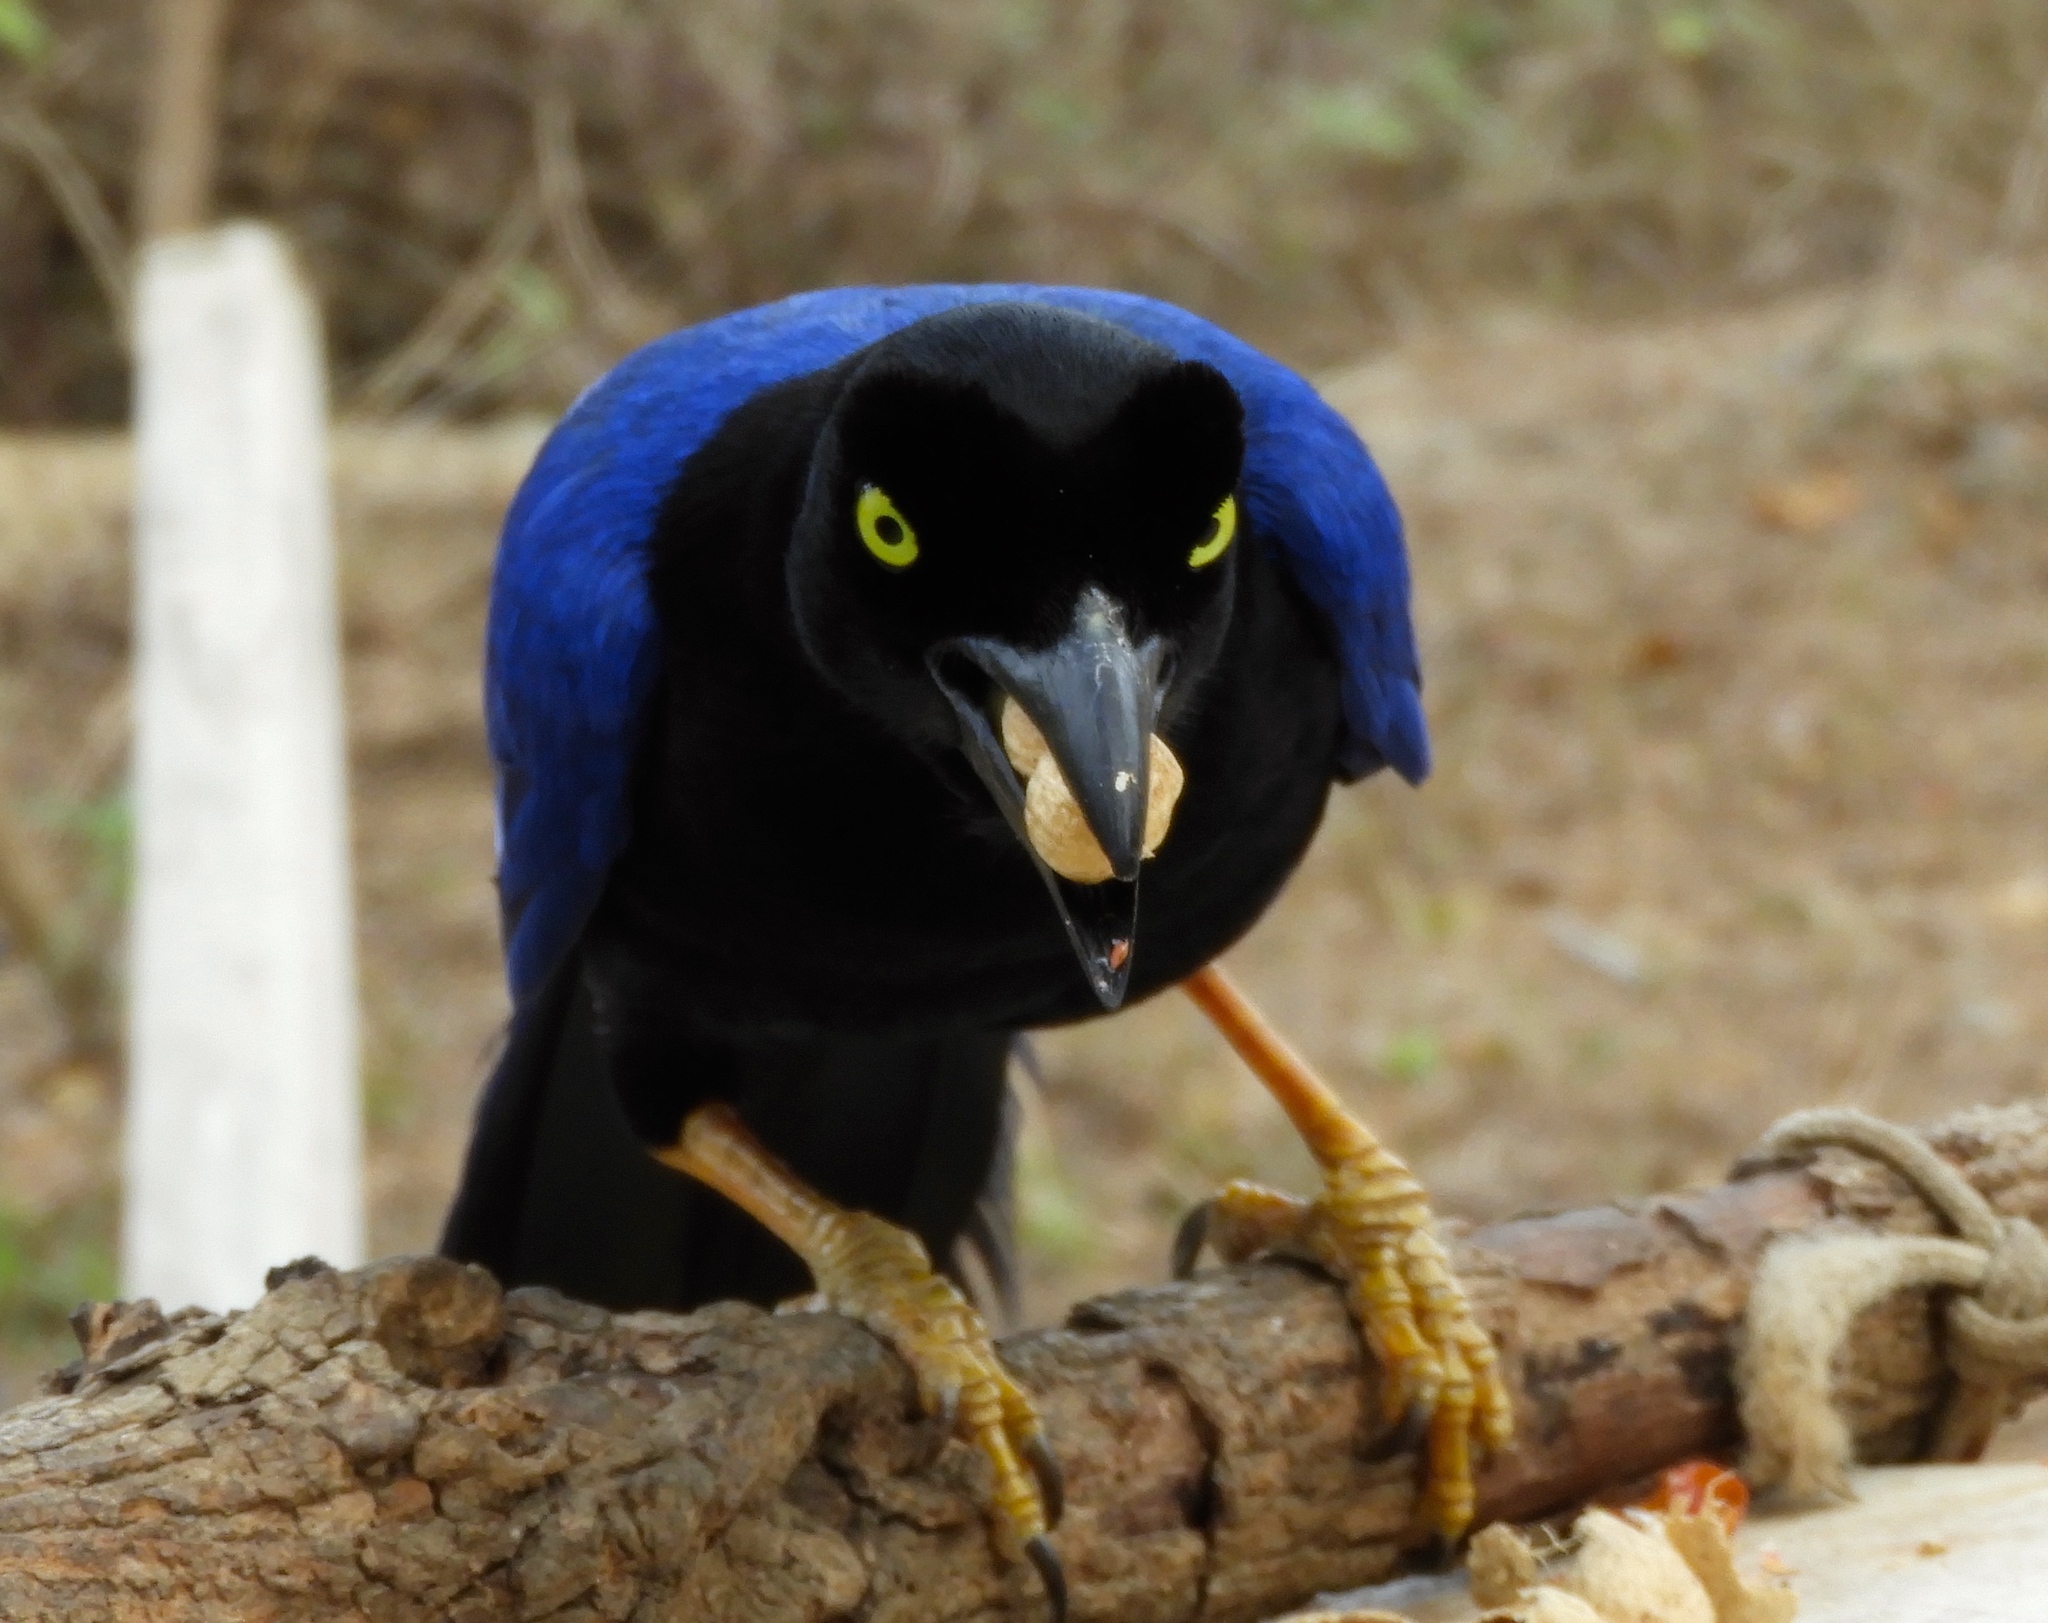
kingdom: Animalia
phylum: Chordata
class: Aves
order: Passeriformes
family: Corvidae
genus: Cyanocorax
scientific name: Cyanocorax beecheii
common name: Purplish-backed jay
